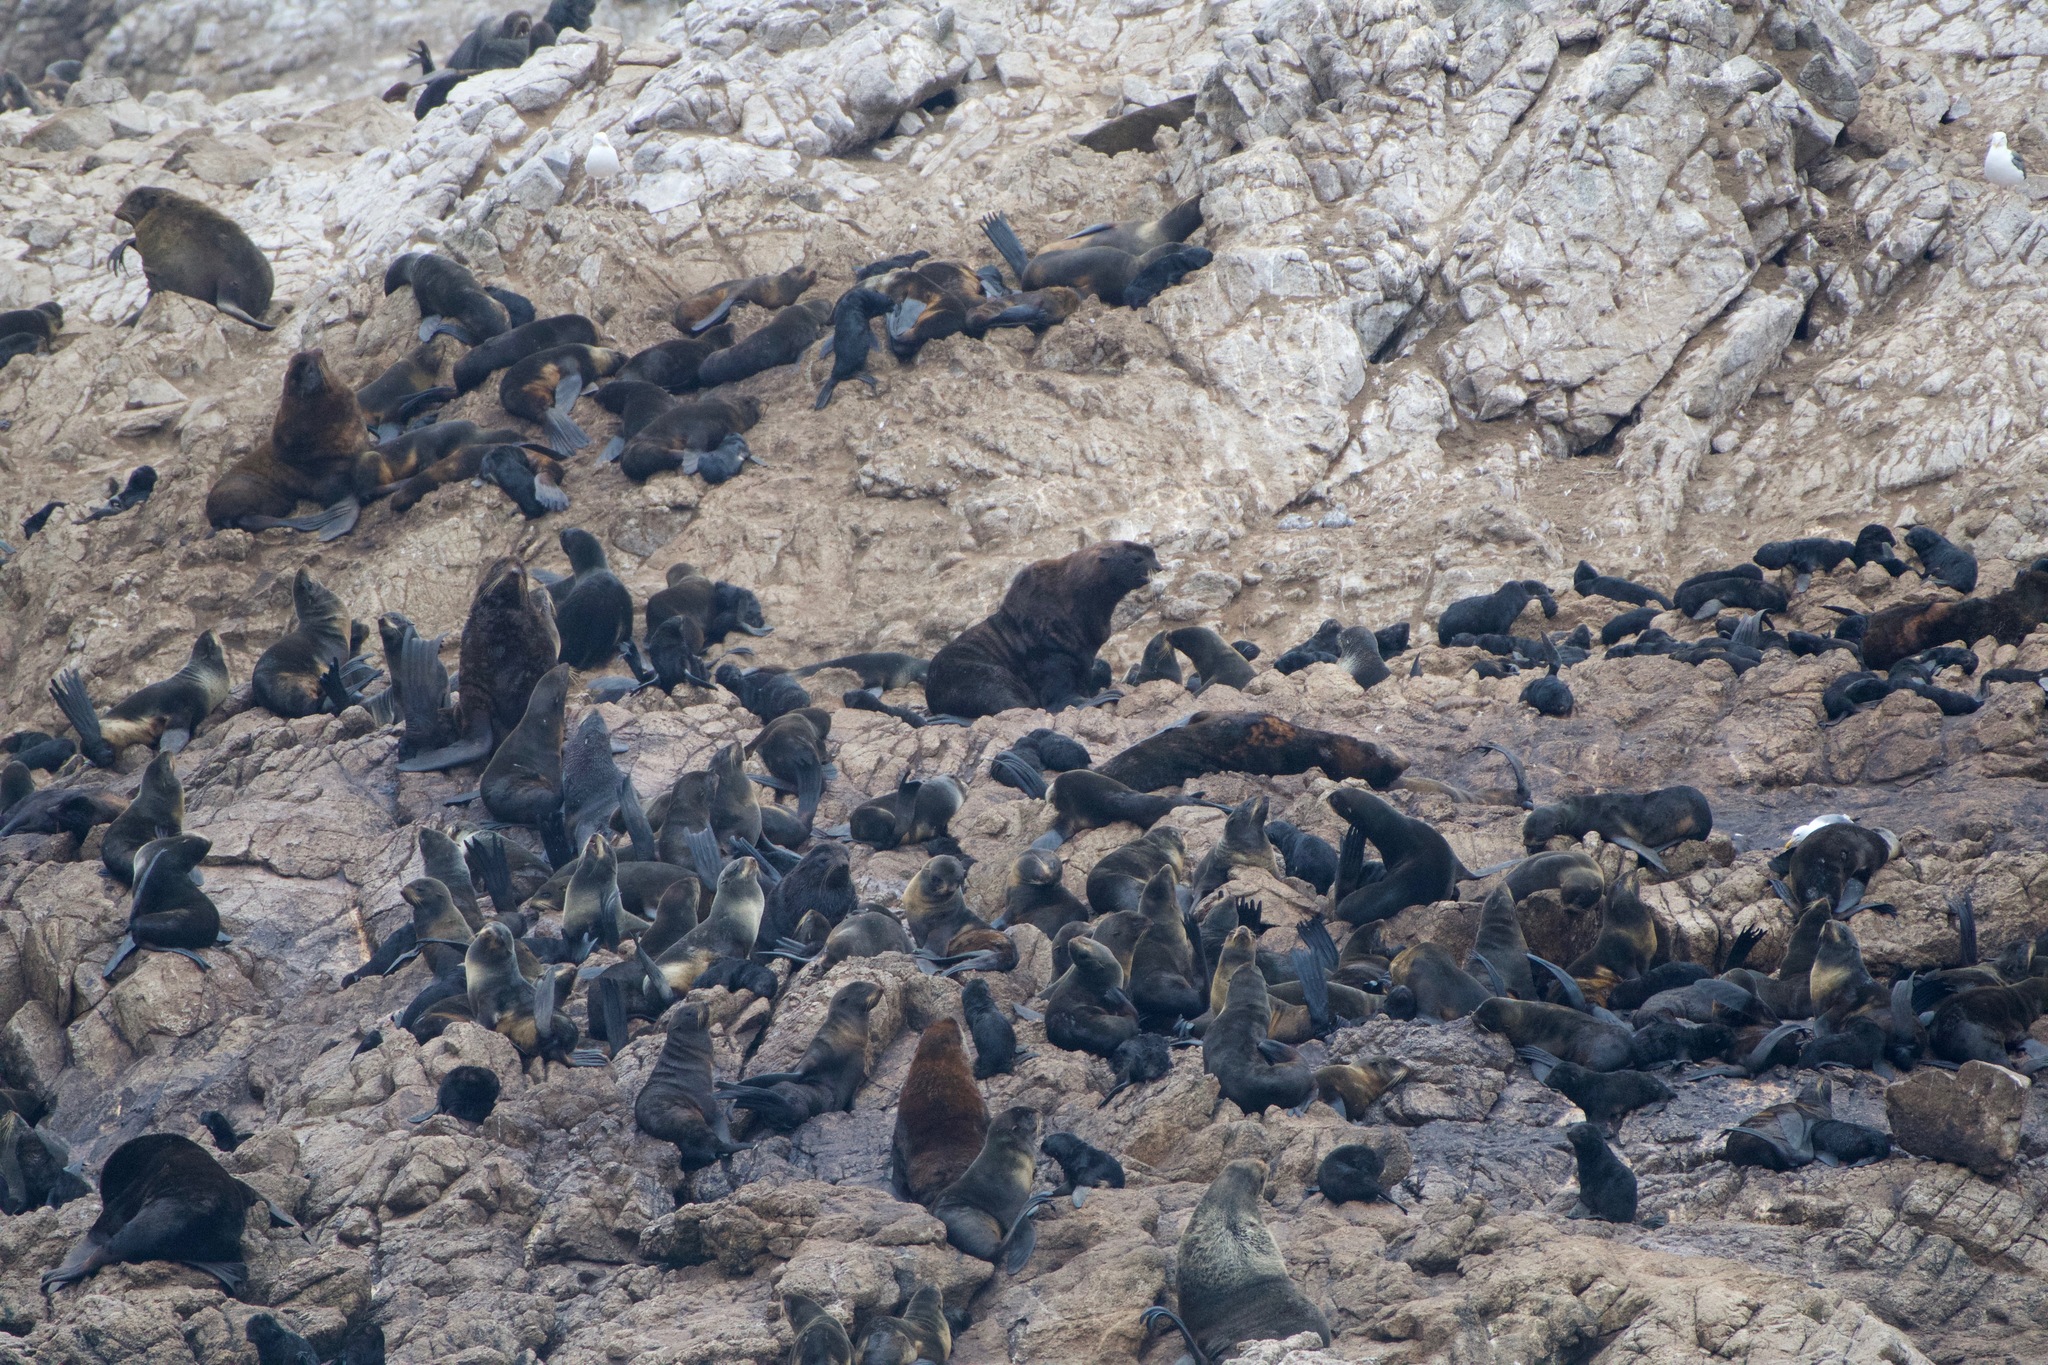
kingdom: Animalia
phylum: Chordata
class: Mammalia
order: Carnivora
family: Otariidae
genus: Callorhinus
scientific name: Callorhinus ursinus
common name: Northern fur seal
